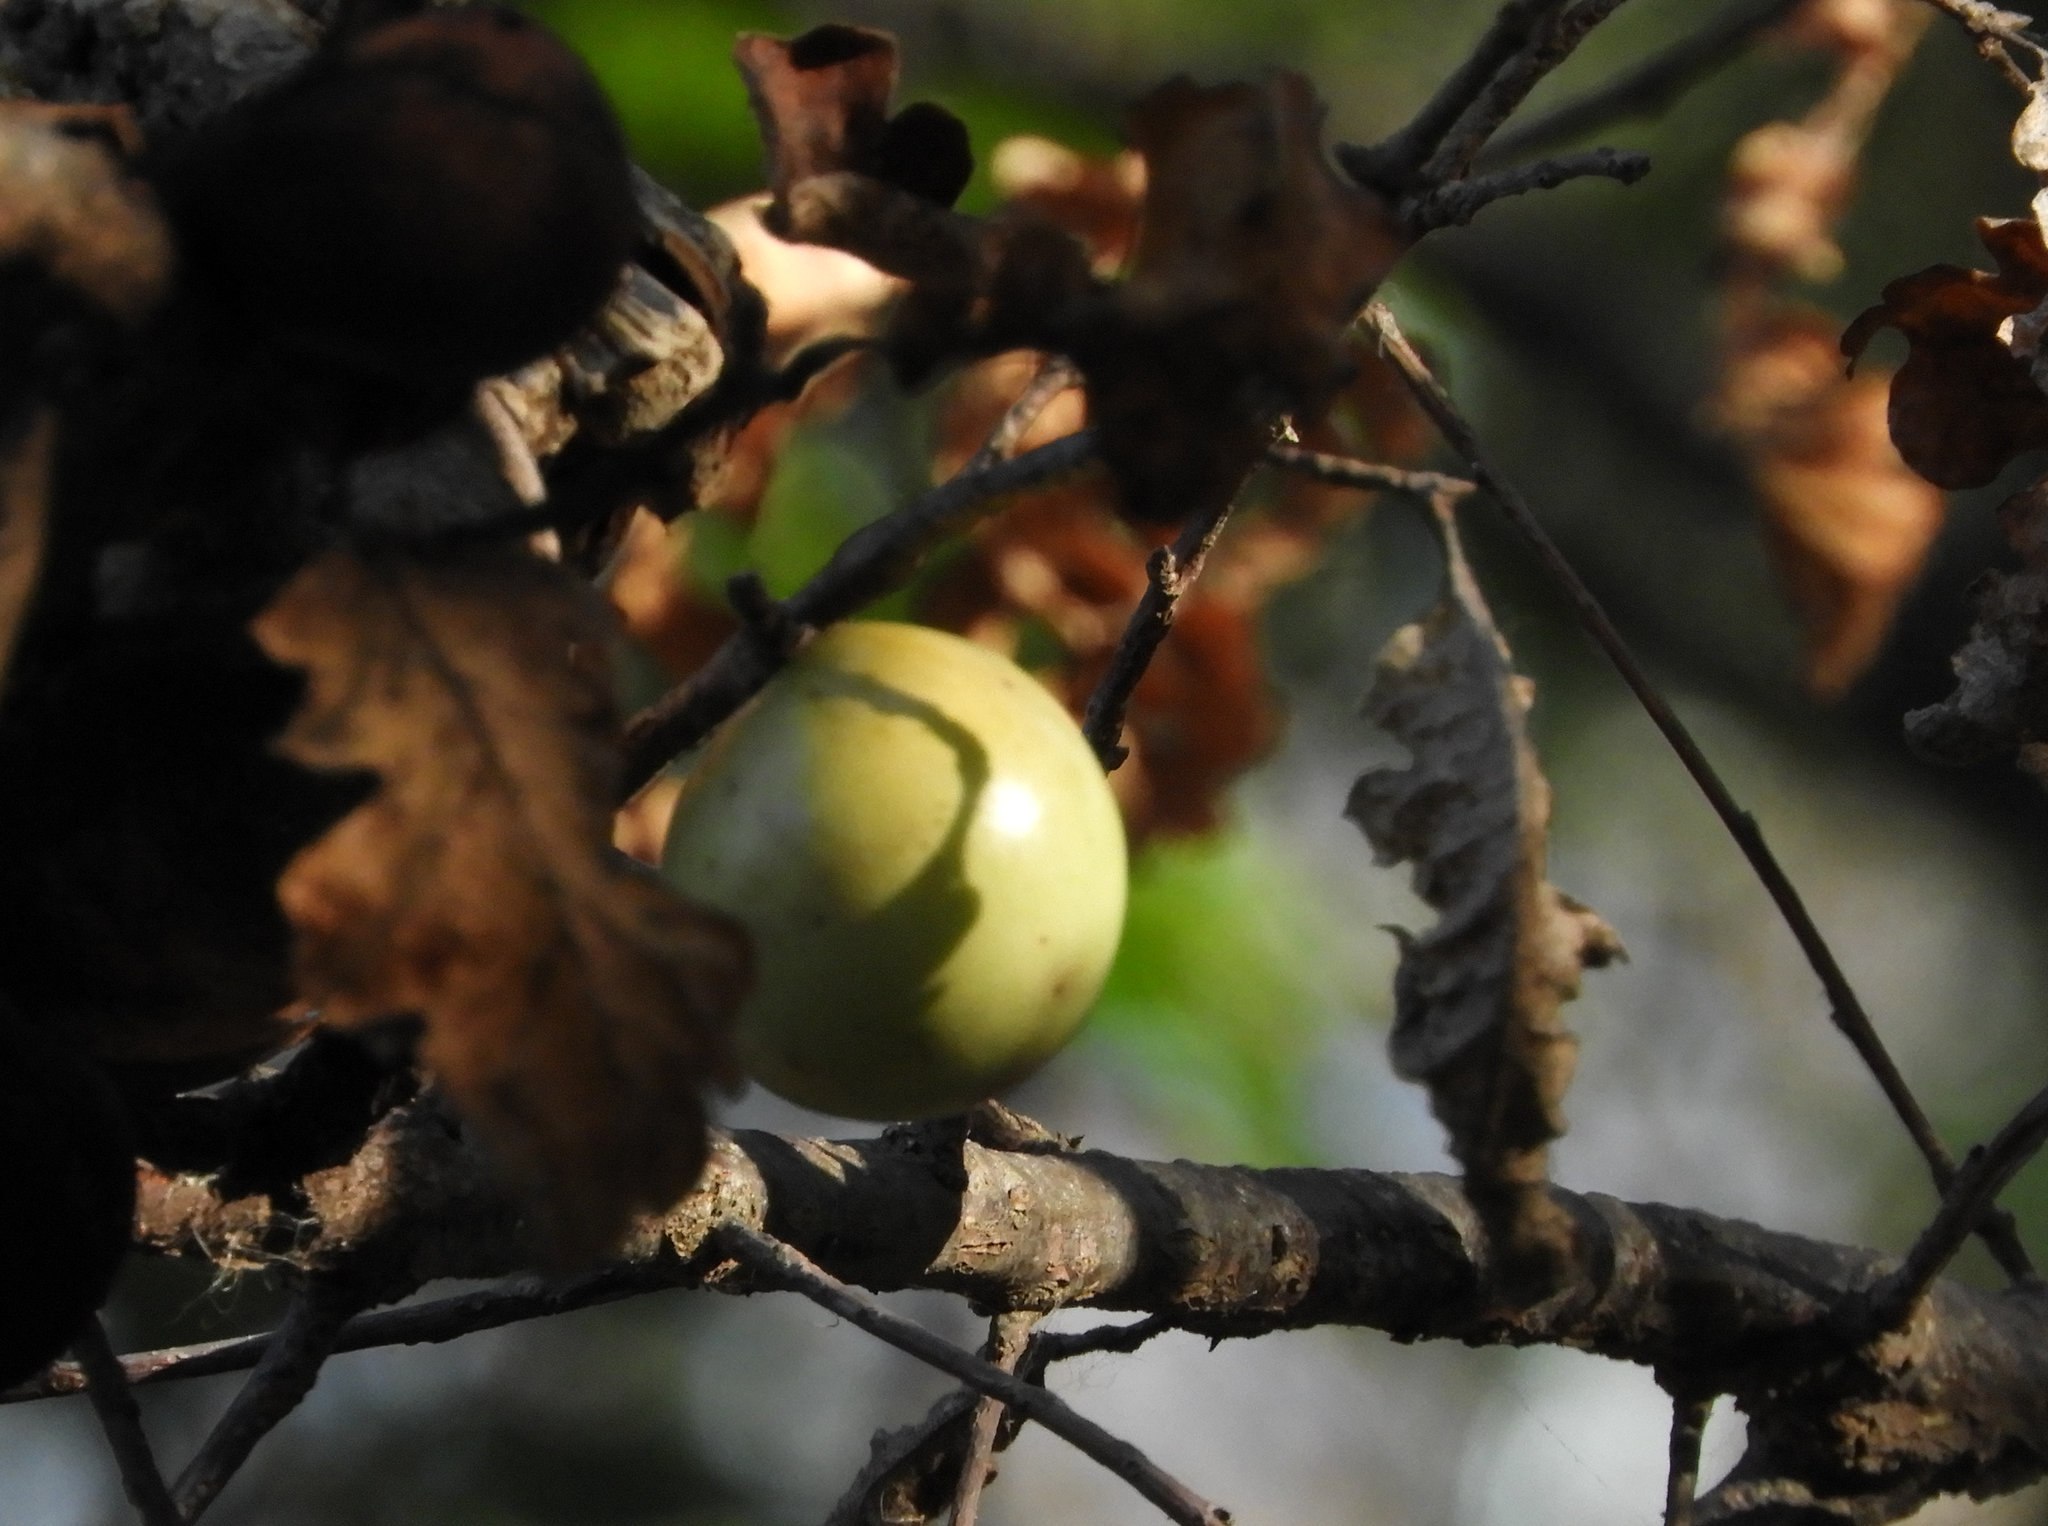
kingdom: Animalia
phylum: Arthropoda
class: Insecta
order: Hymenoptera
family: Cynipidae
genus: Andricus
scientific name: Andricus quercuscalifornicus
